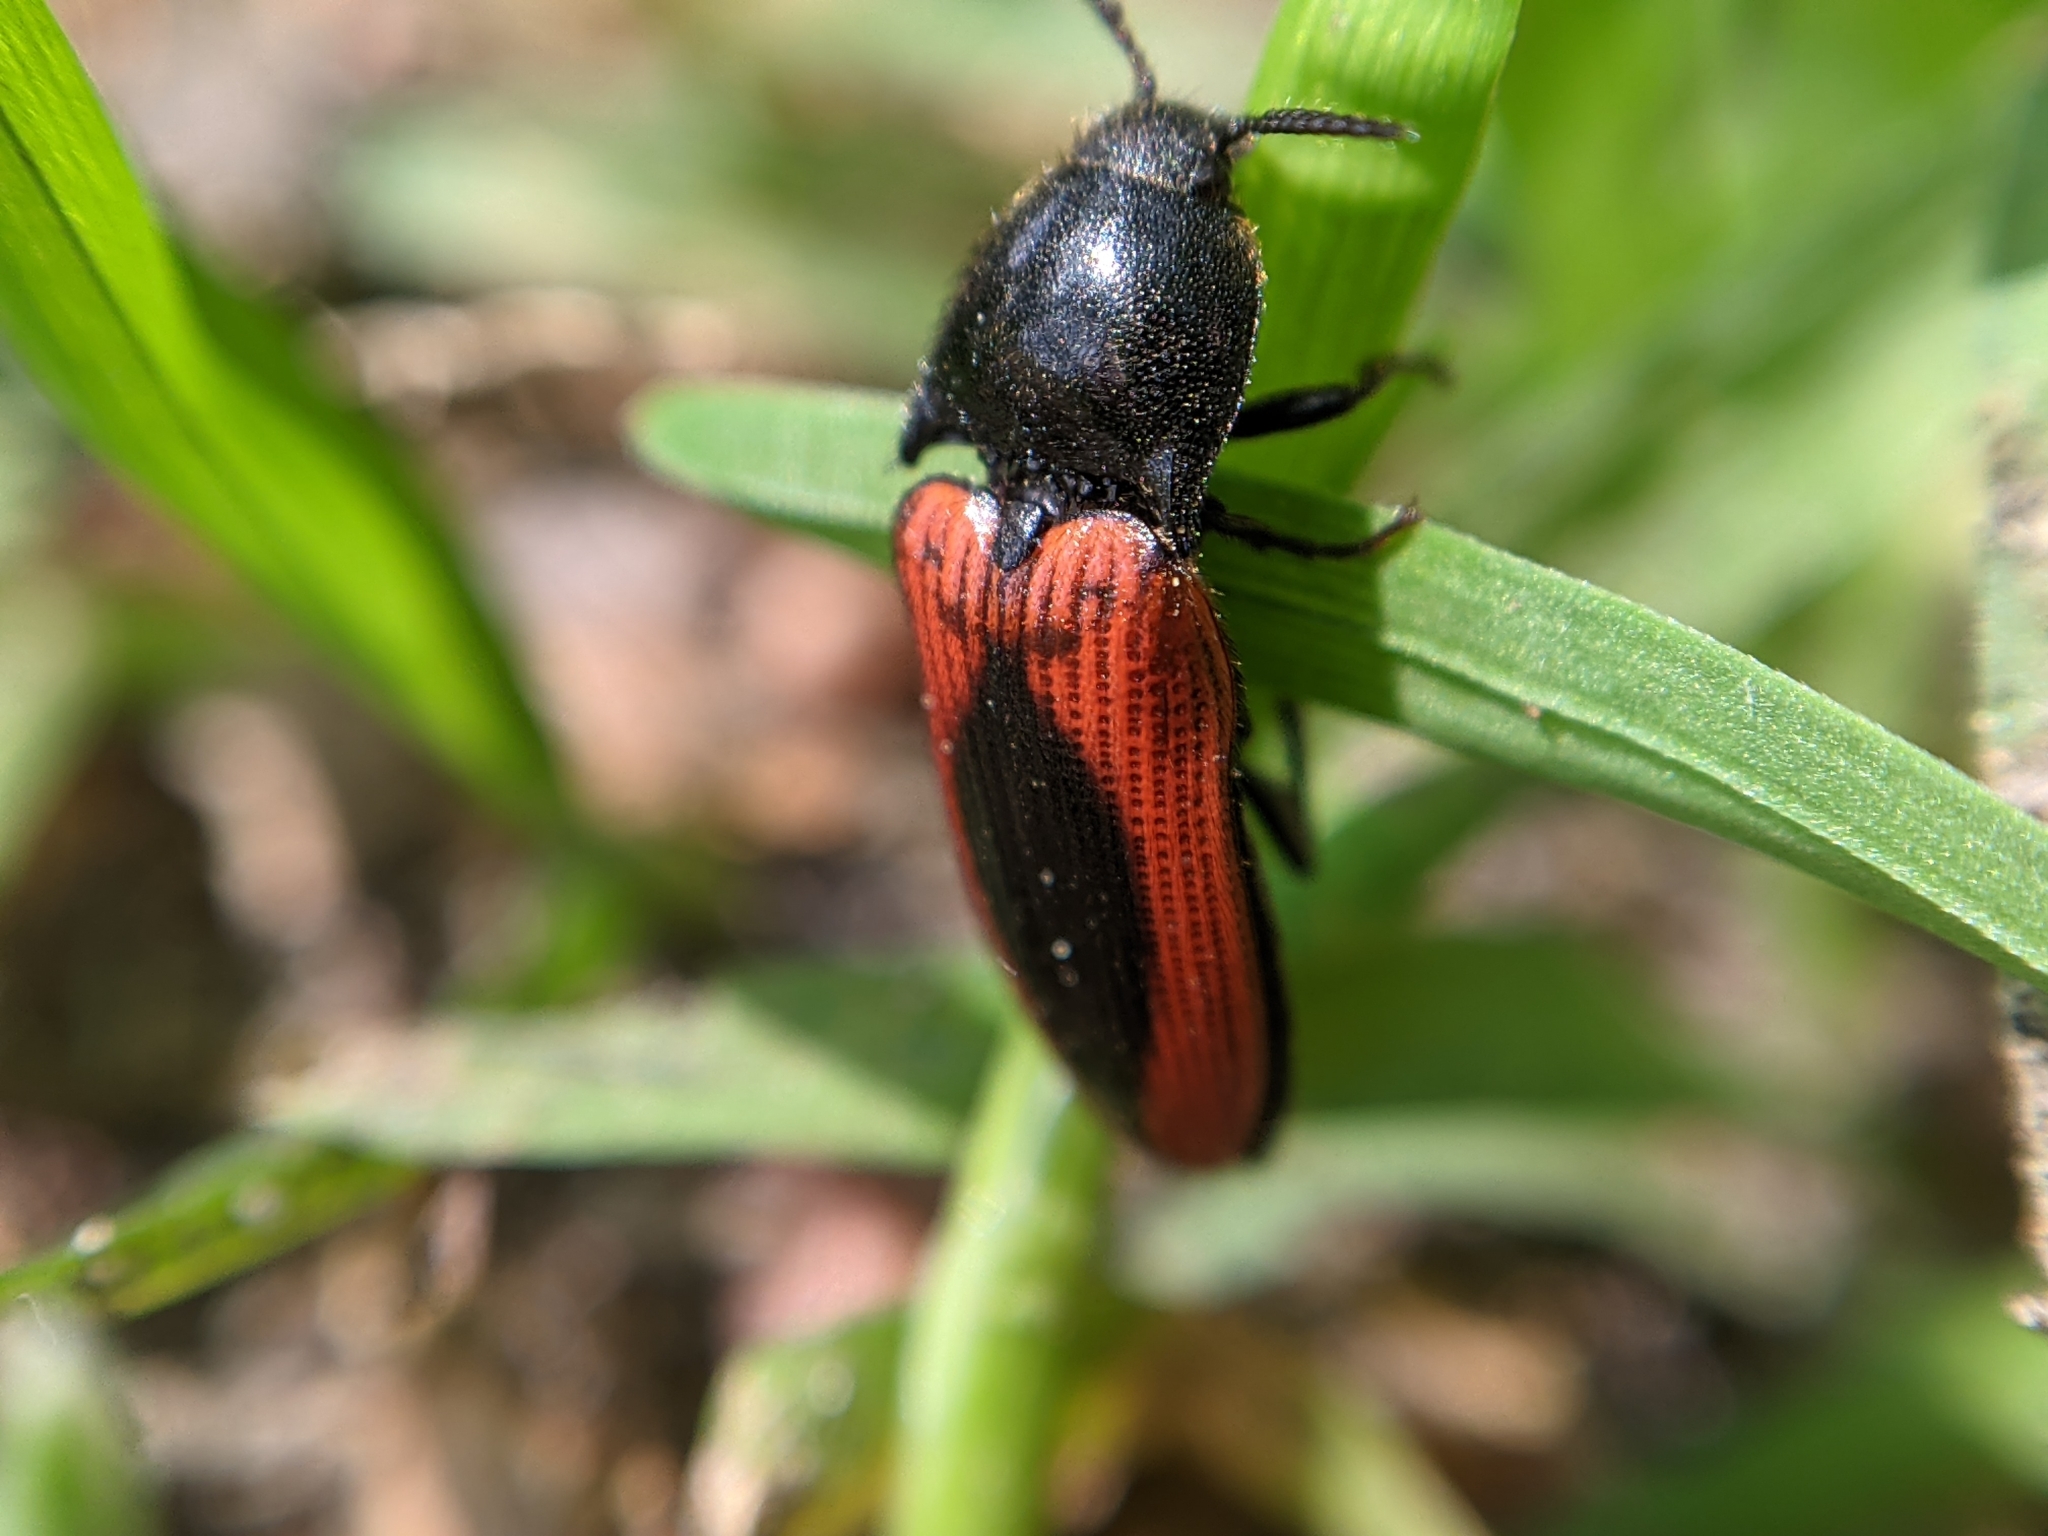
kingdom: Animalia
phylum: Arthropoda
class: Insecta
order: Coleoptera
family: Elateridae
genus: Ampedus
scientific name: Ampedus sanguinolentus
